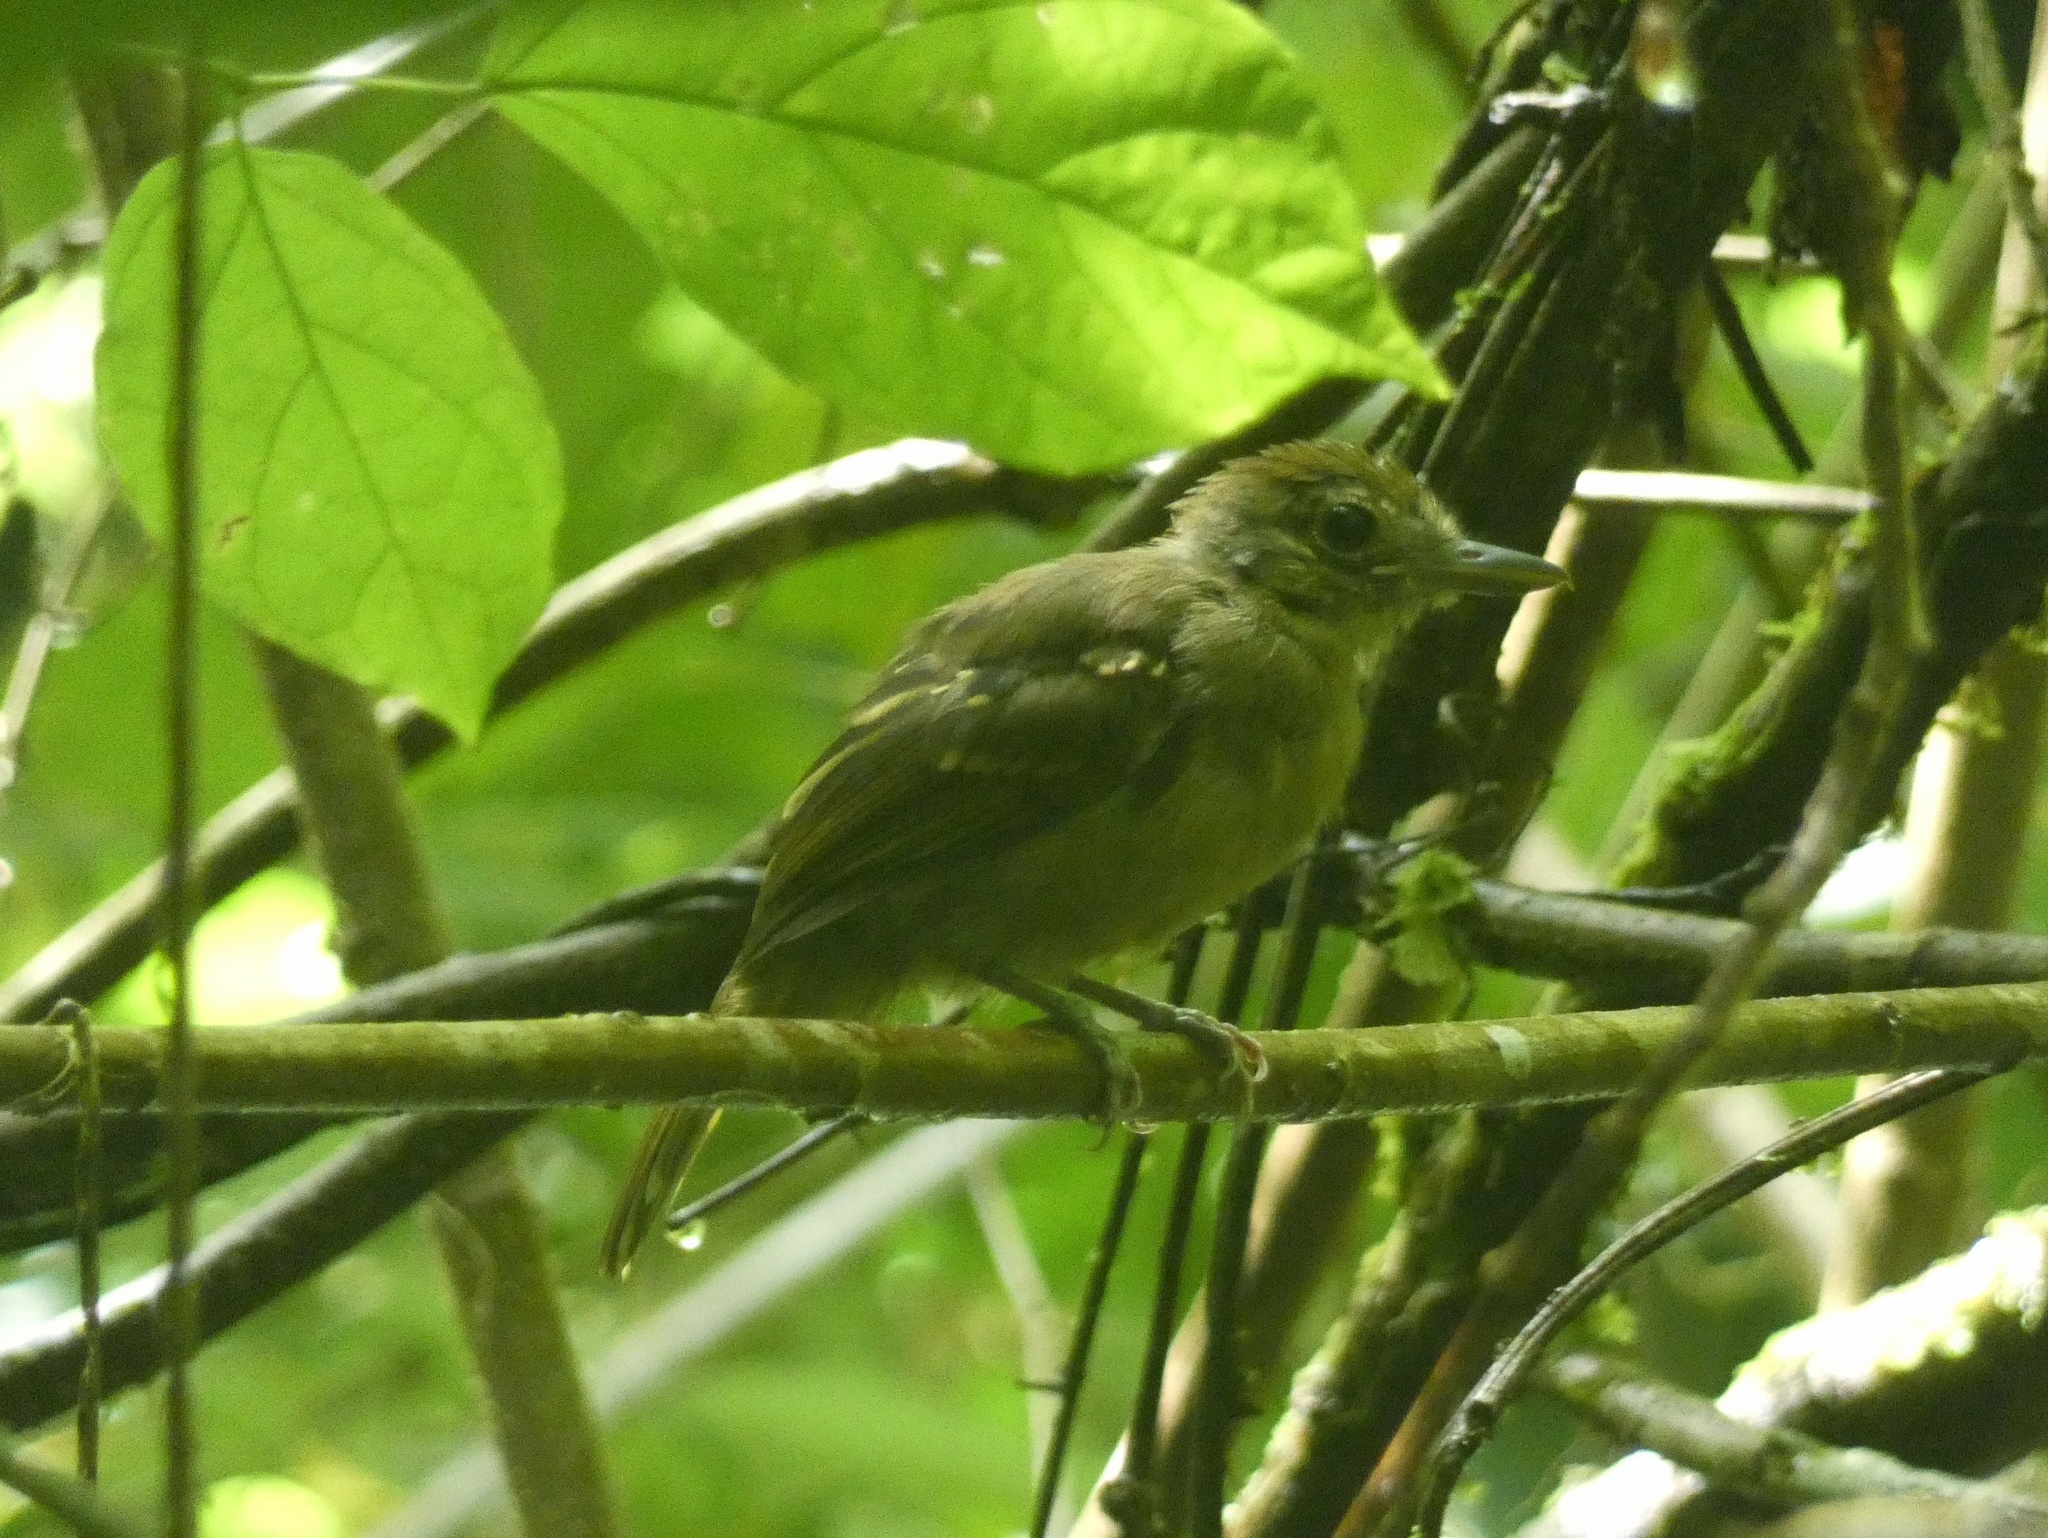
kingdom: Animalia
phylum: Chordata
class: Aves
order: Passeriformes
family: Thamnophilidae
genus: Thamnophilus
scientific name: Thamnophilus atrinucha
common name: Black-crowned antshrike
